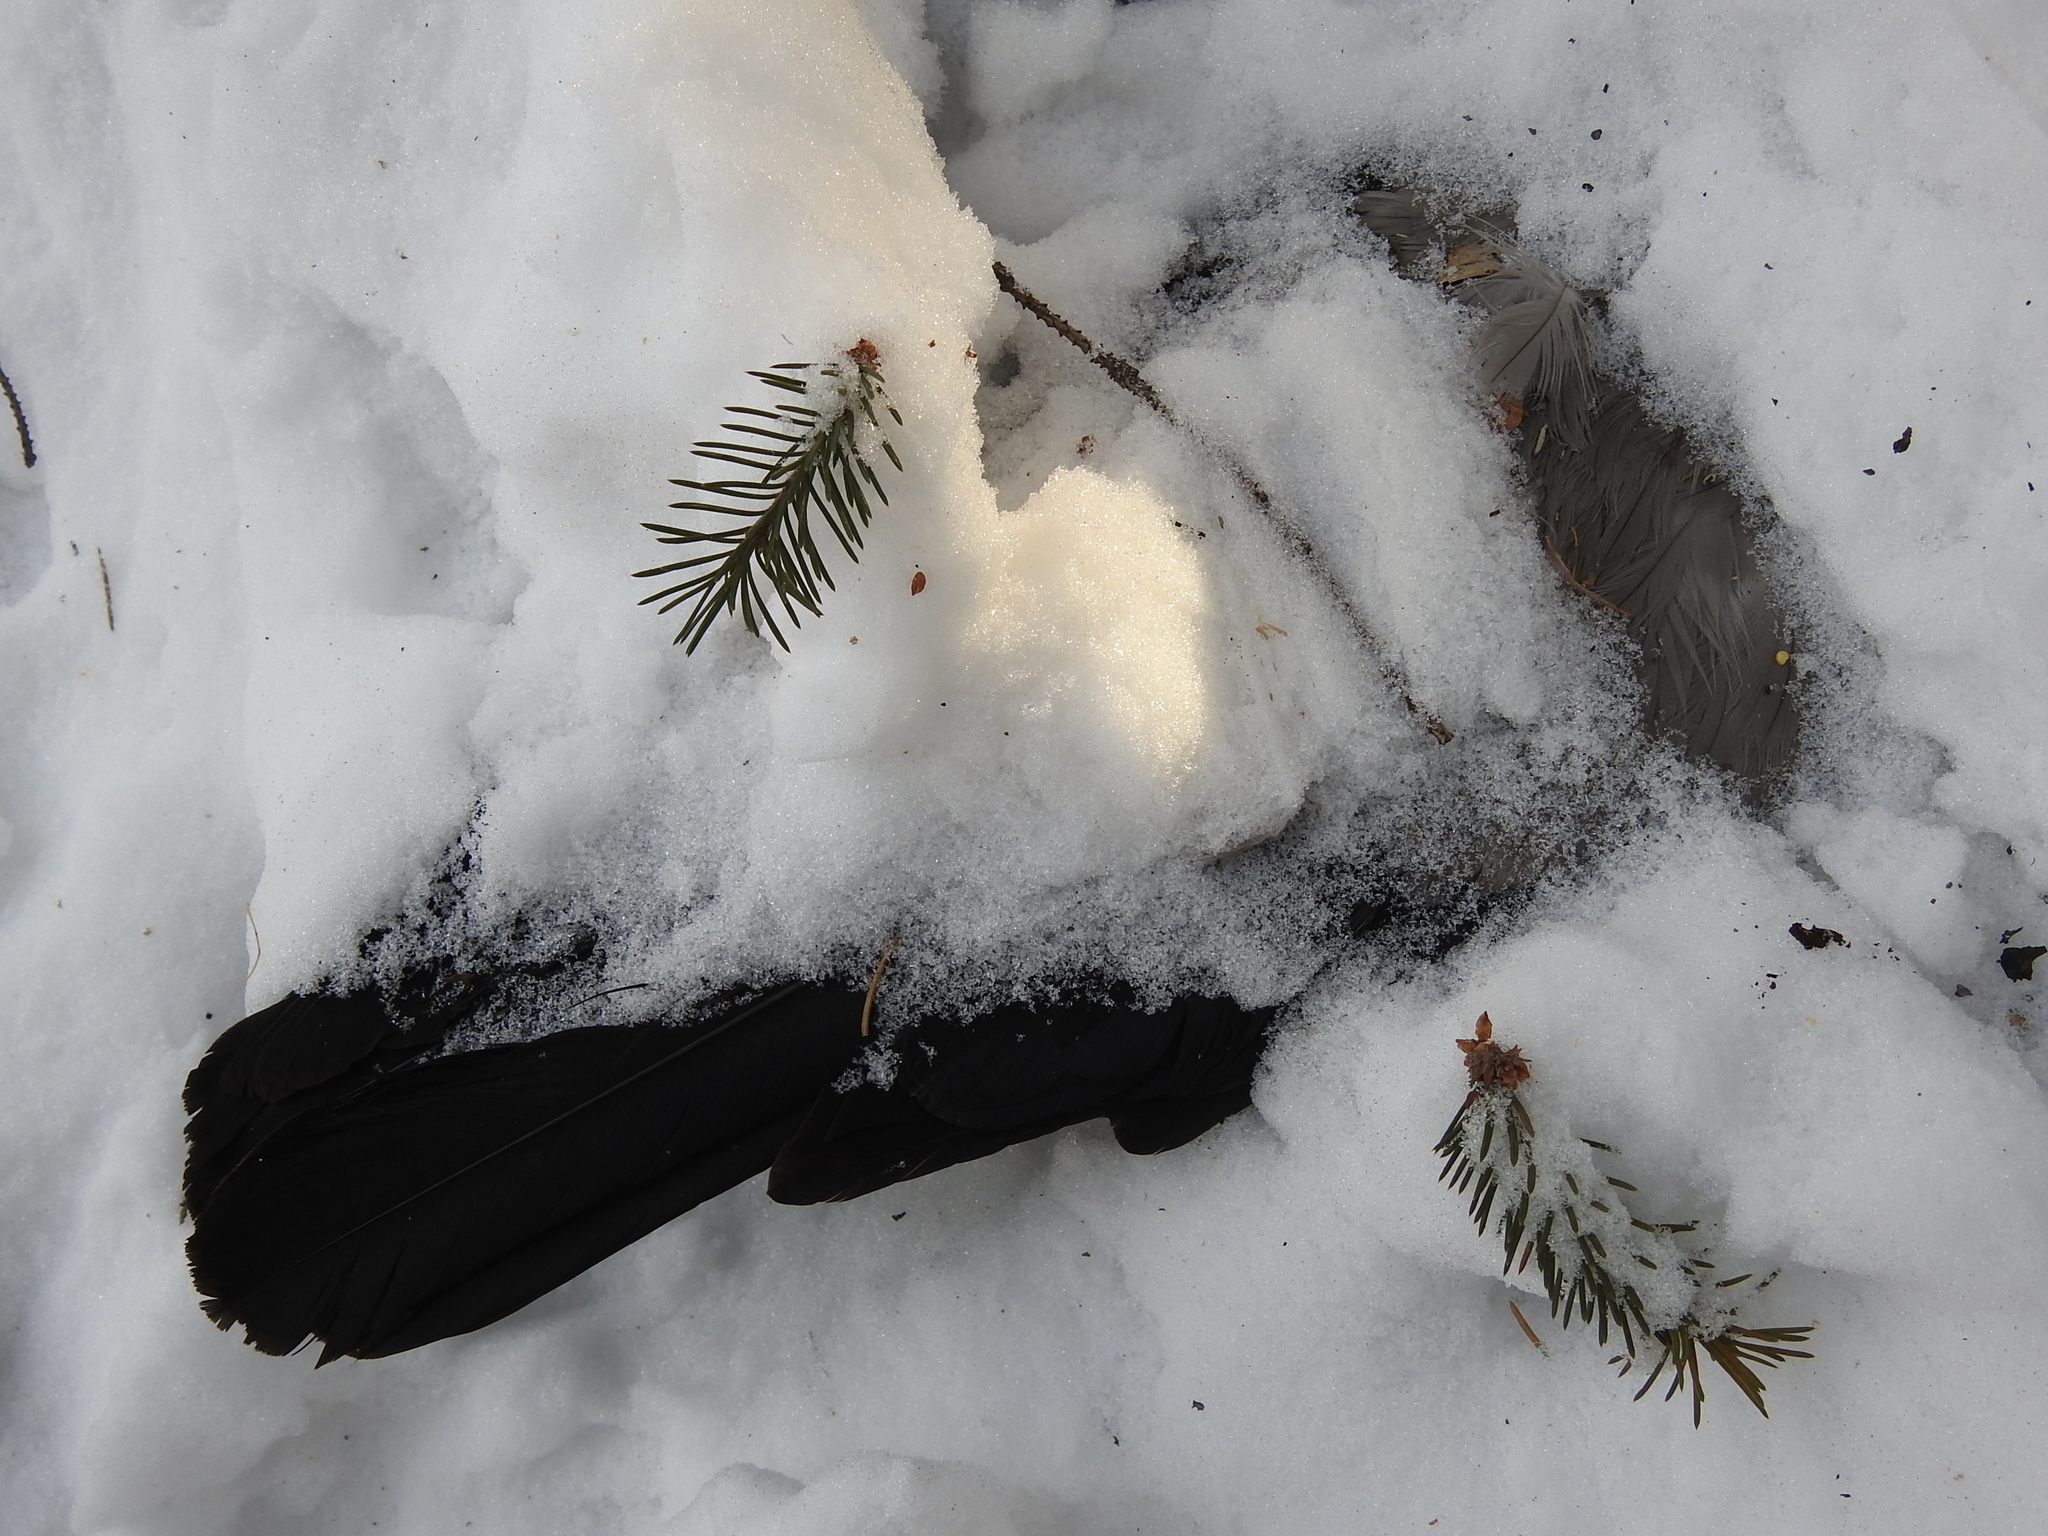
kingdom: Animalia
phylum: Chordata
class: Aves
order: Passeriformes
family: Corvidae
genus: Corvus
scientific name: Corvus cornix
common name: Hooded crow
